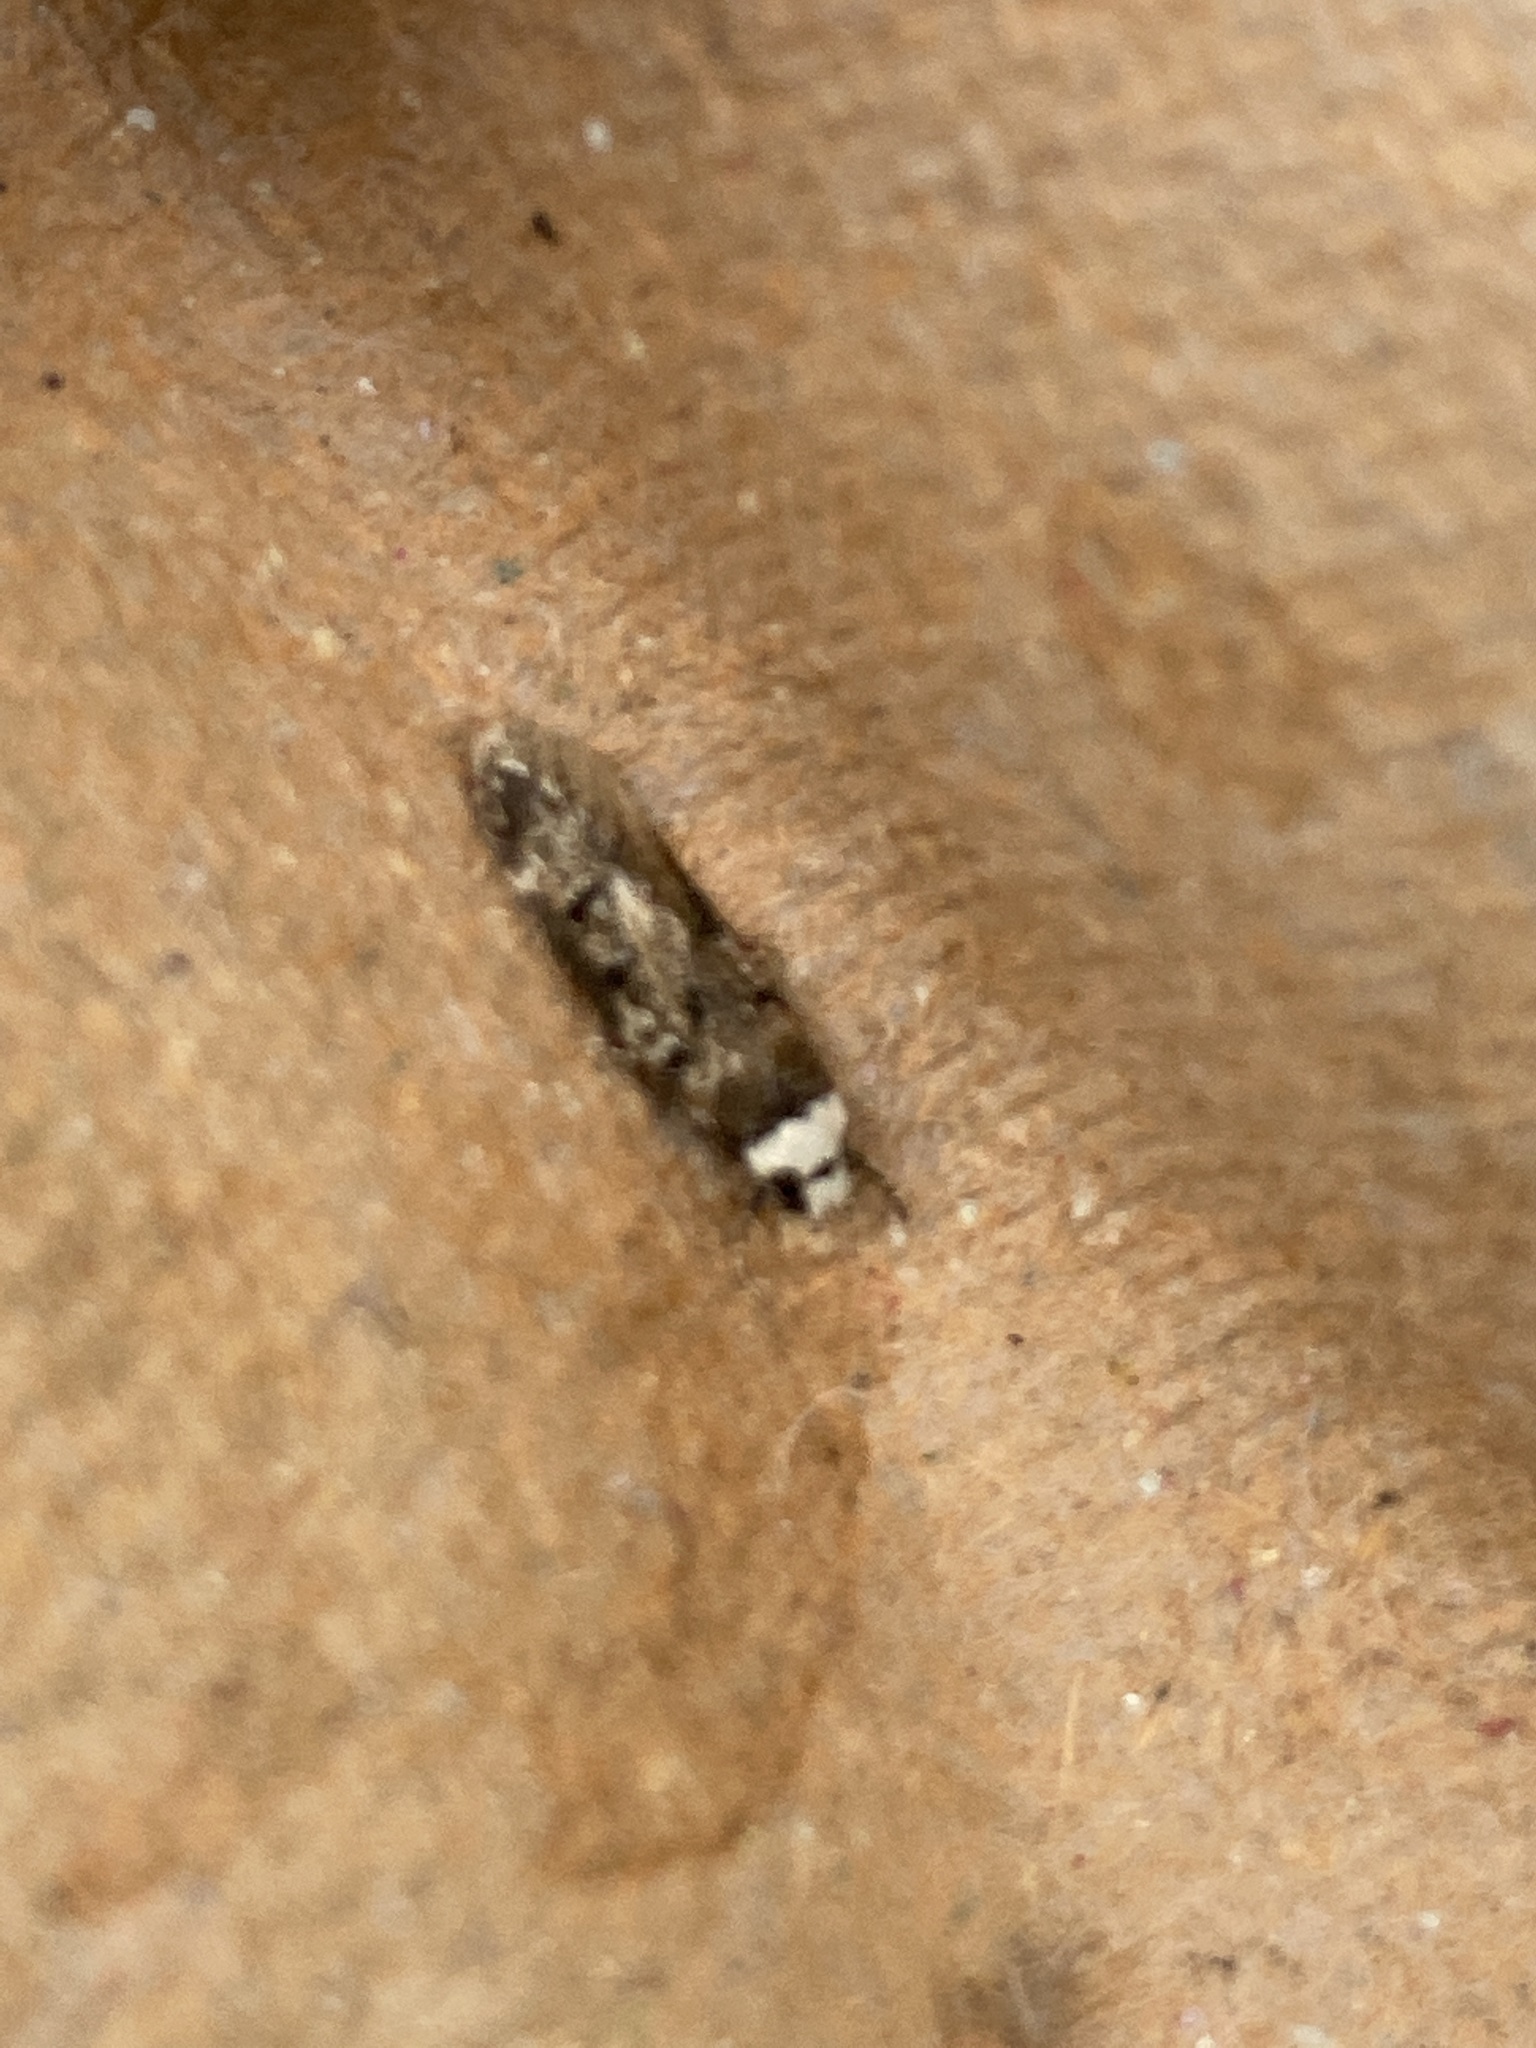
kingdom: Animalia
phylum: Arthropoda
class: Insecta
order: Lepidoptera
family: Oecophoridae
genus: Endrosis
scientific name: Endrosis sarcitrella
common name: White-shouldered house moth
